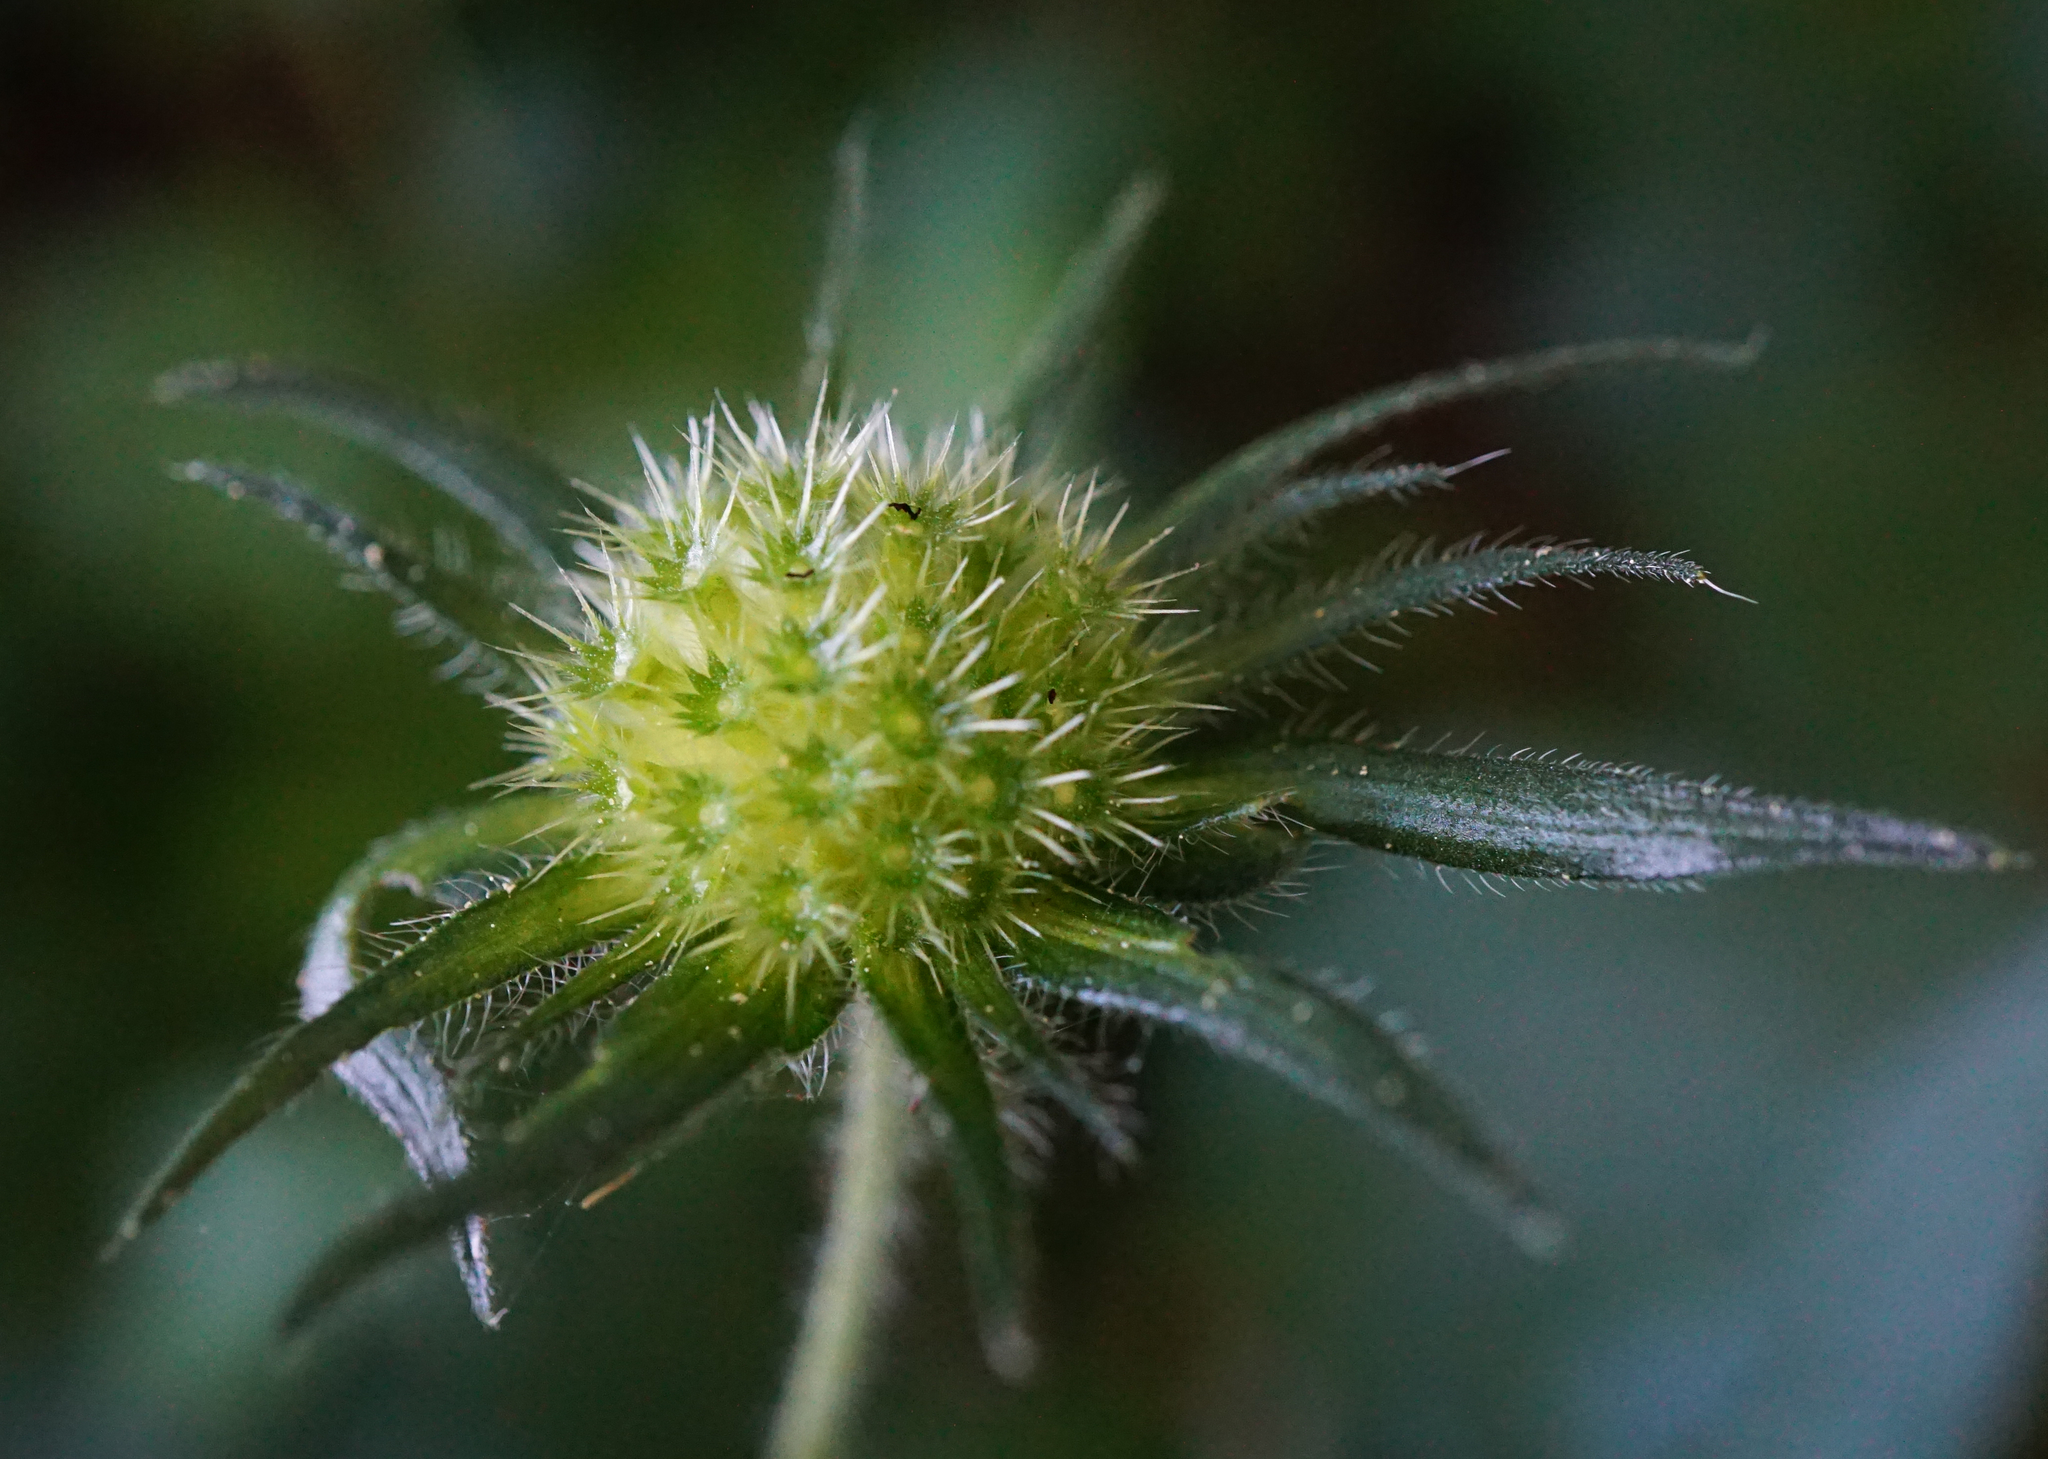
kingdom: Plantae
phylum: Tracheophyta
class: Magnoliopsida
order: Dipsacales
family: Caprifoliaceae
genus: Knautia
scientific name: Knautia drymeia
